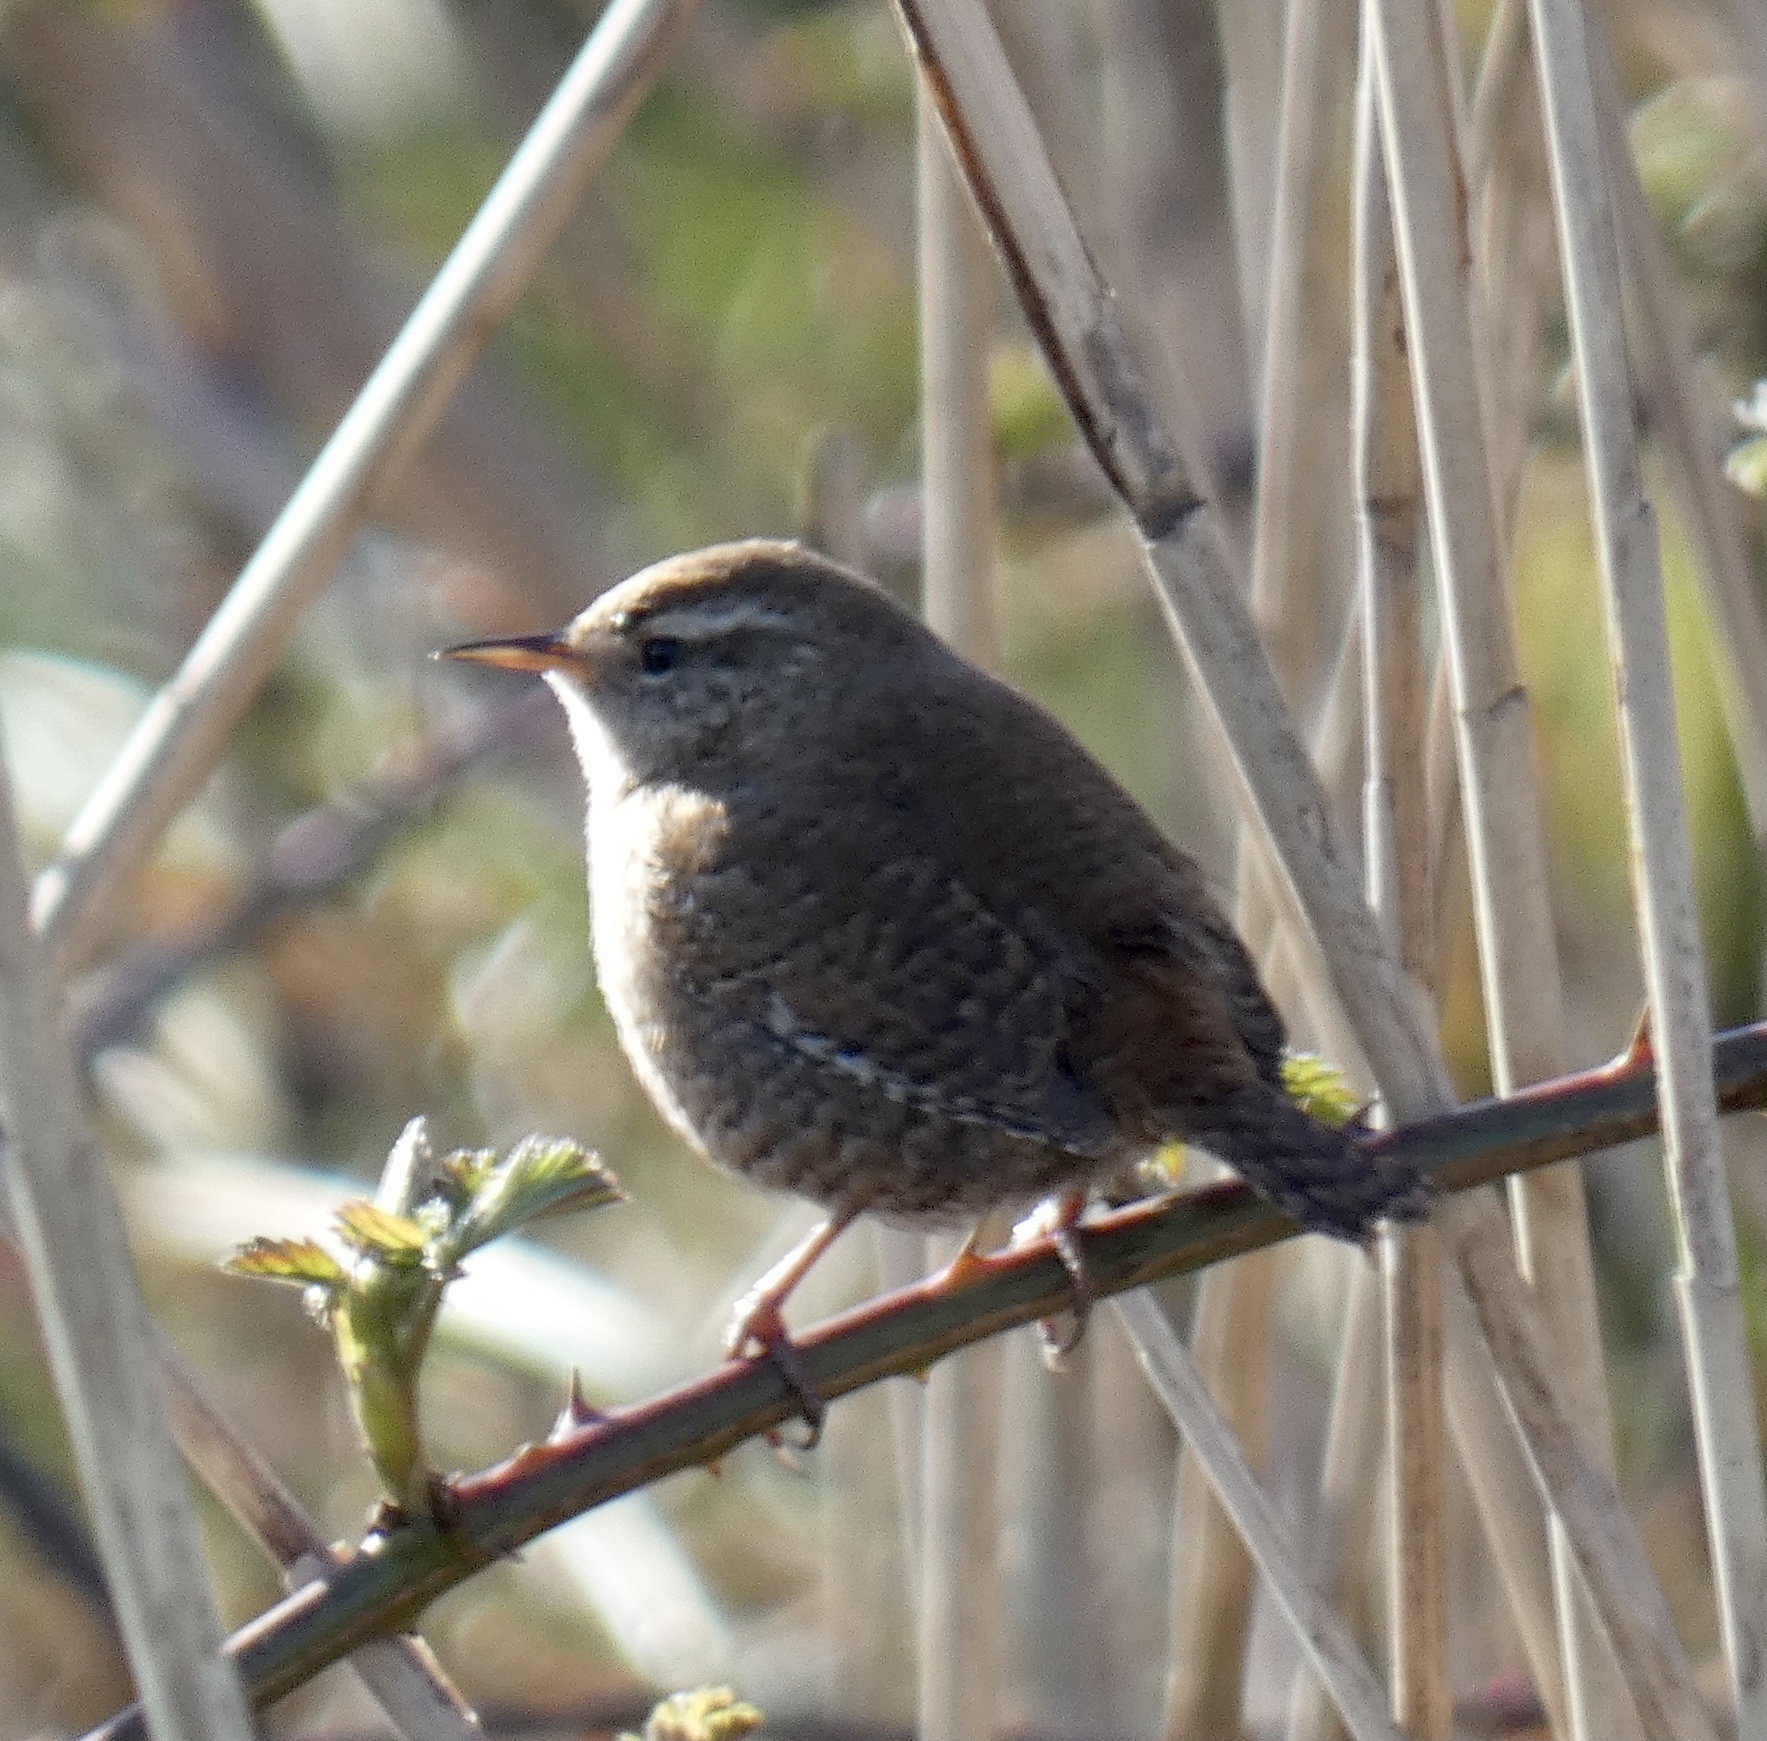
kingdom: Animalia
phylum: Chordata
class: Aves
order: Passeriformes
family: Troglodytidae
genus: Troglodytes
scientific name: Troglodytes troglodytes
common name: Eurasian wren
